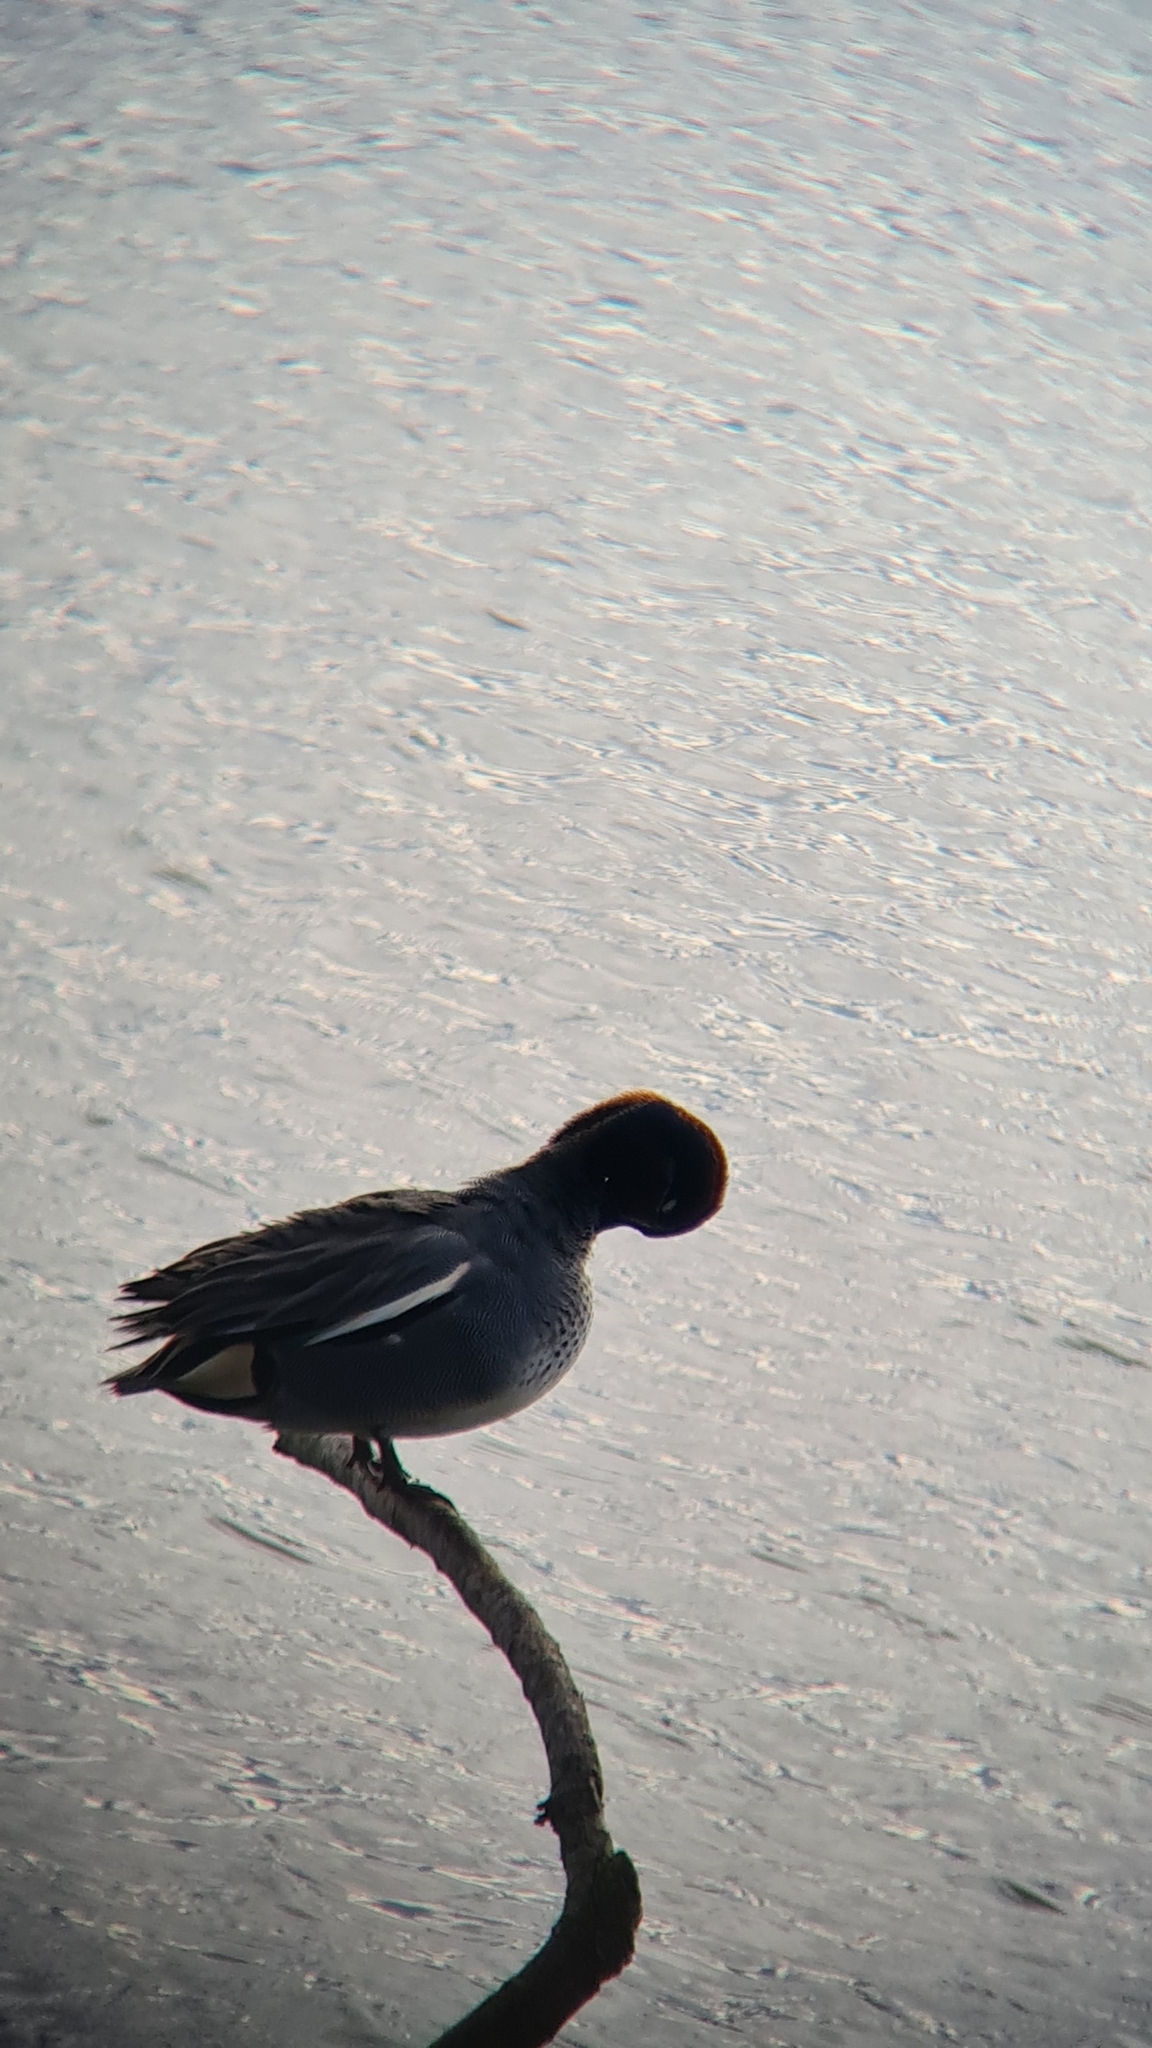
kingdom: Animalia
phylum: Chordata
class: Aves
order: Anseriformes
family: Anatidae
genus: Anas
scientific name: Anas crecca
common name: Eurasian teal
